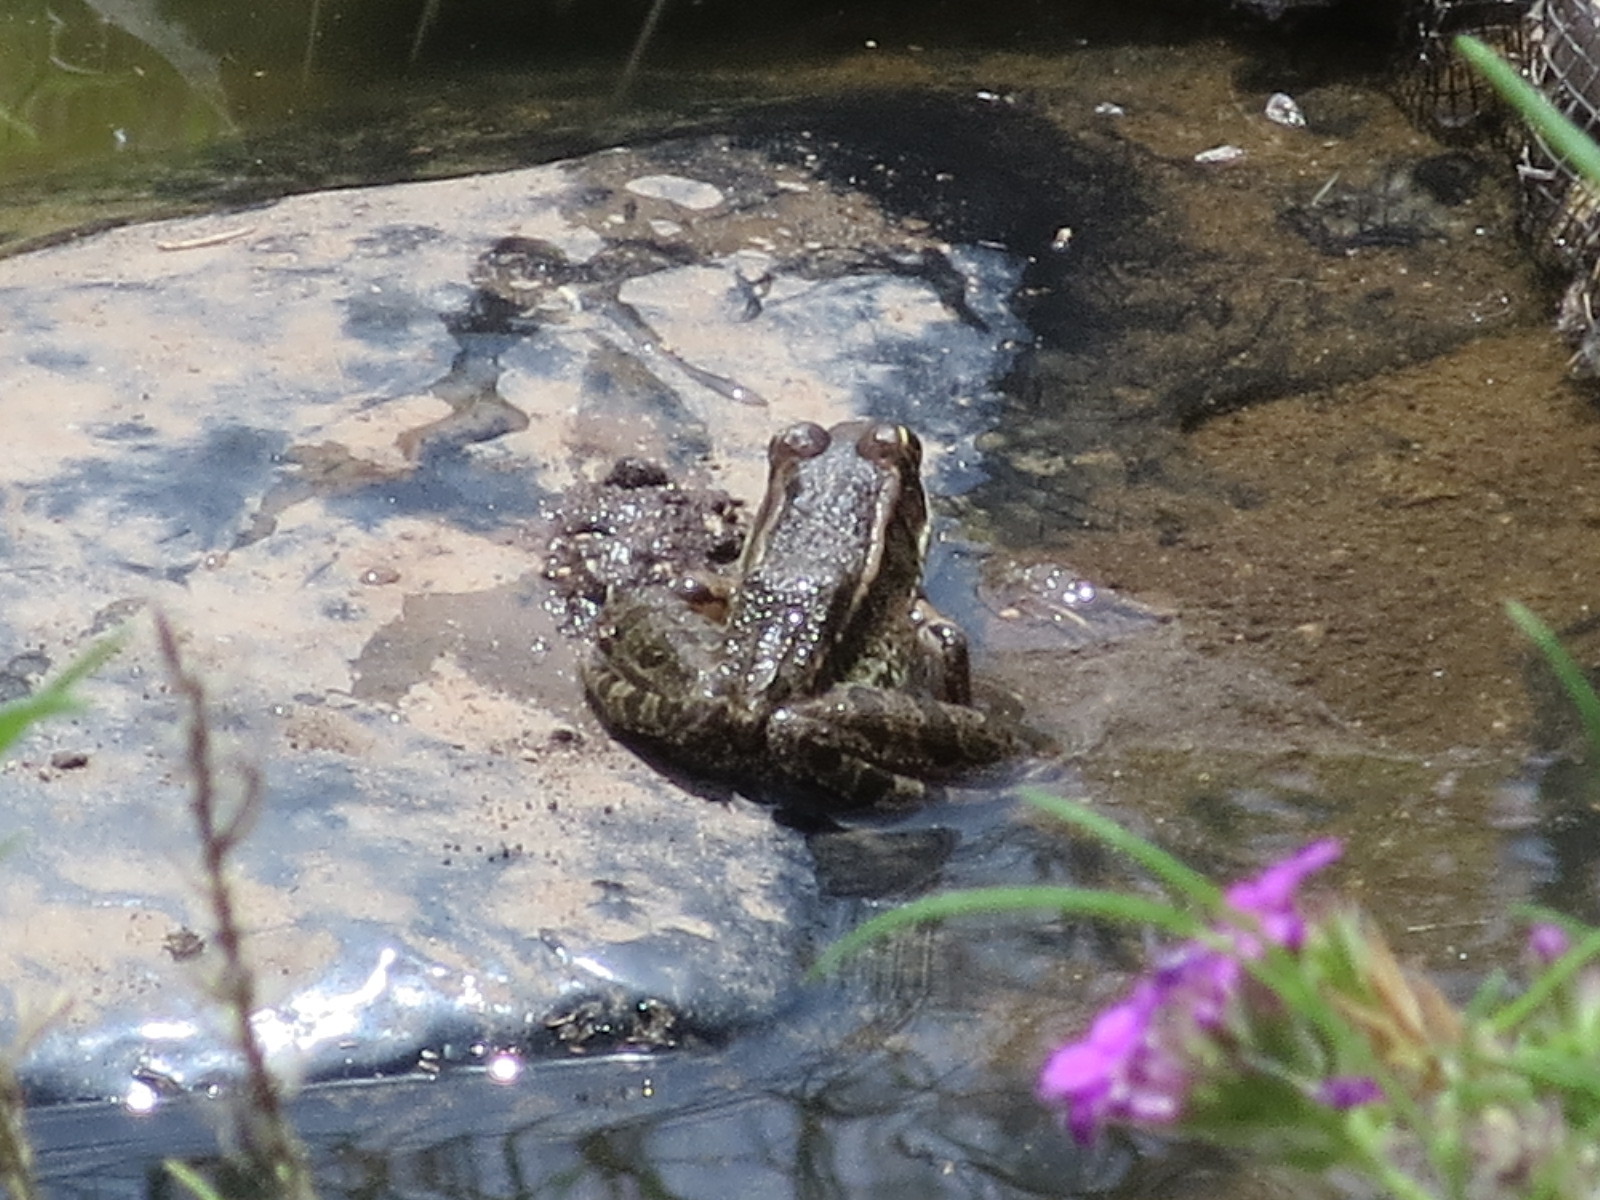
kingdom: Animalia
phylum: Chordata
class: Amphibia
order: Anura
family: Ranidae
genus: Lithobates
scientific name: Lithobates berlandieri
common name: Rio grande leopard frog
